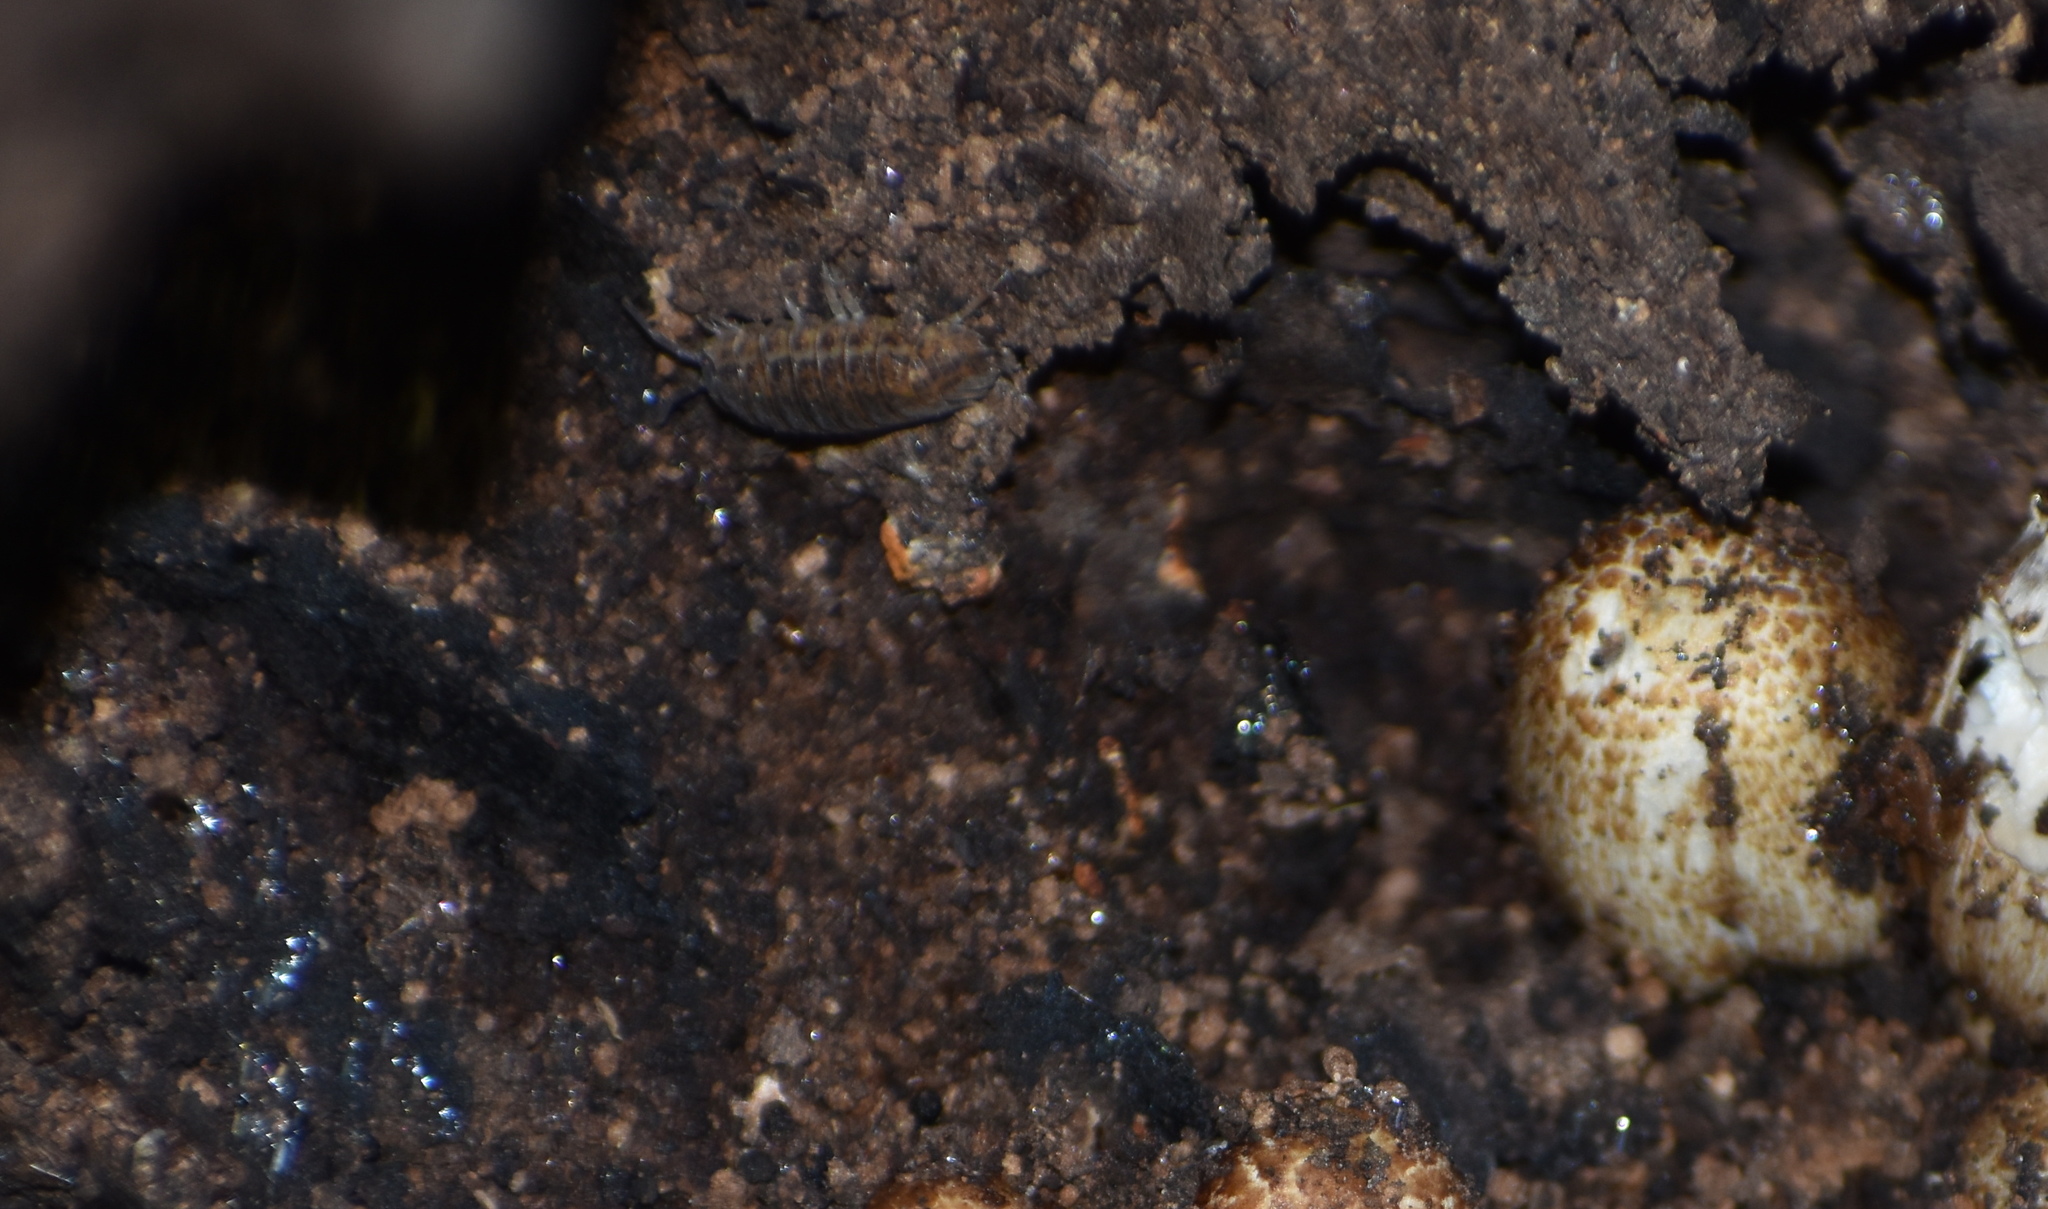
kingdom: Animalia
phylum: Arthropoda
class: Malacostraca
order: Isopoda
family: Trachelipodidae
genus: Trachelipus
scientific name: Trachelipus rathkii
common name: Isopod
